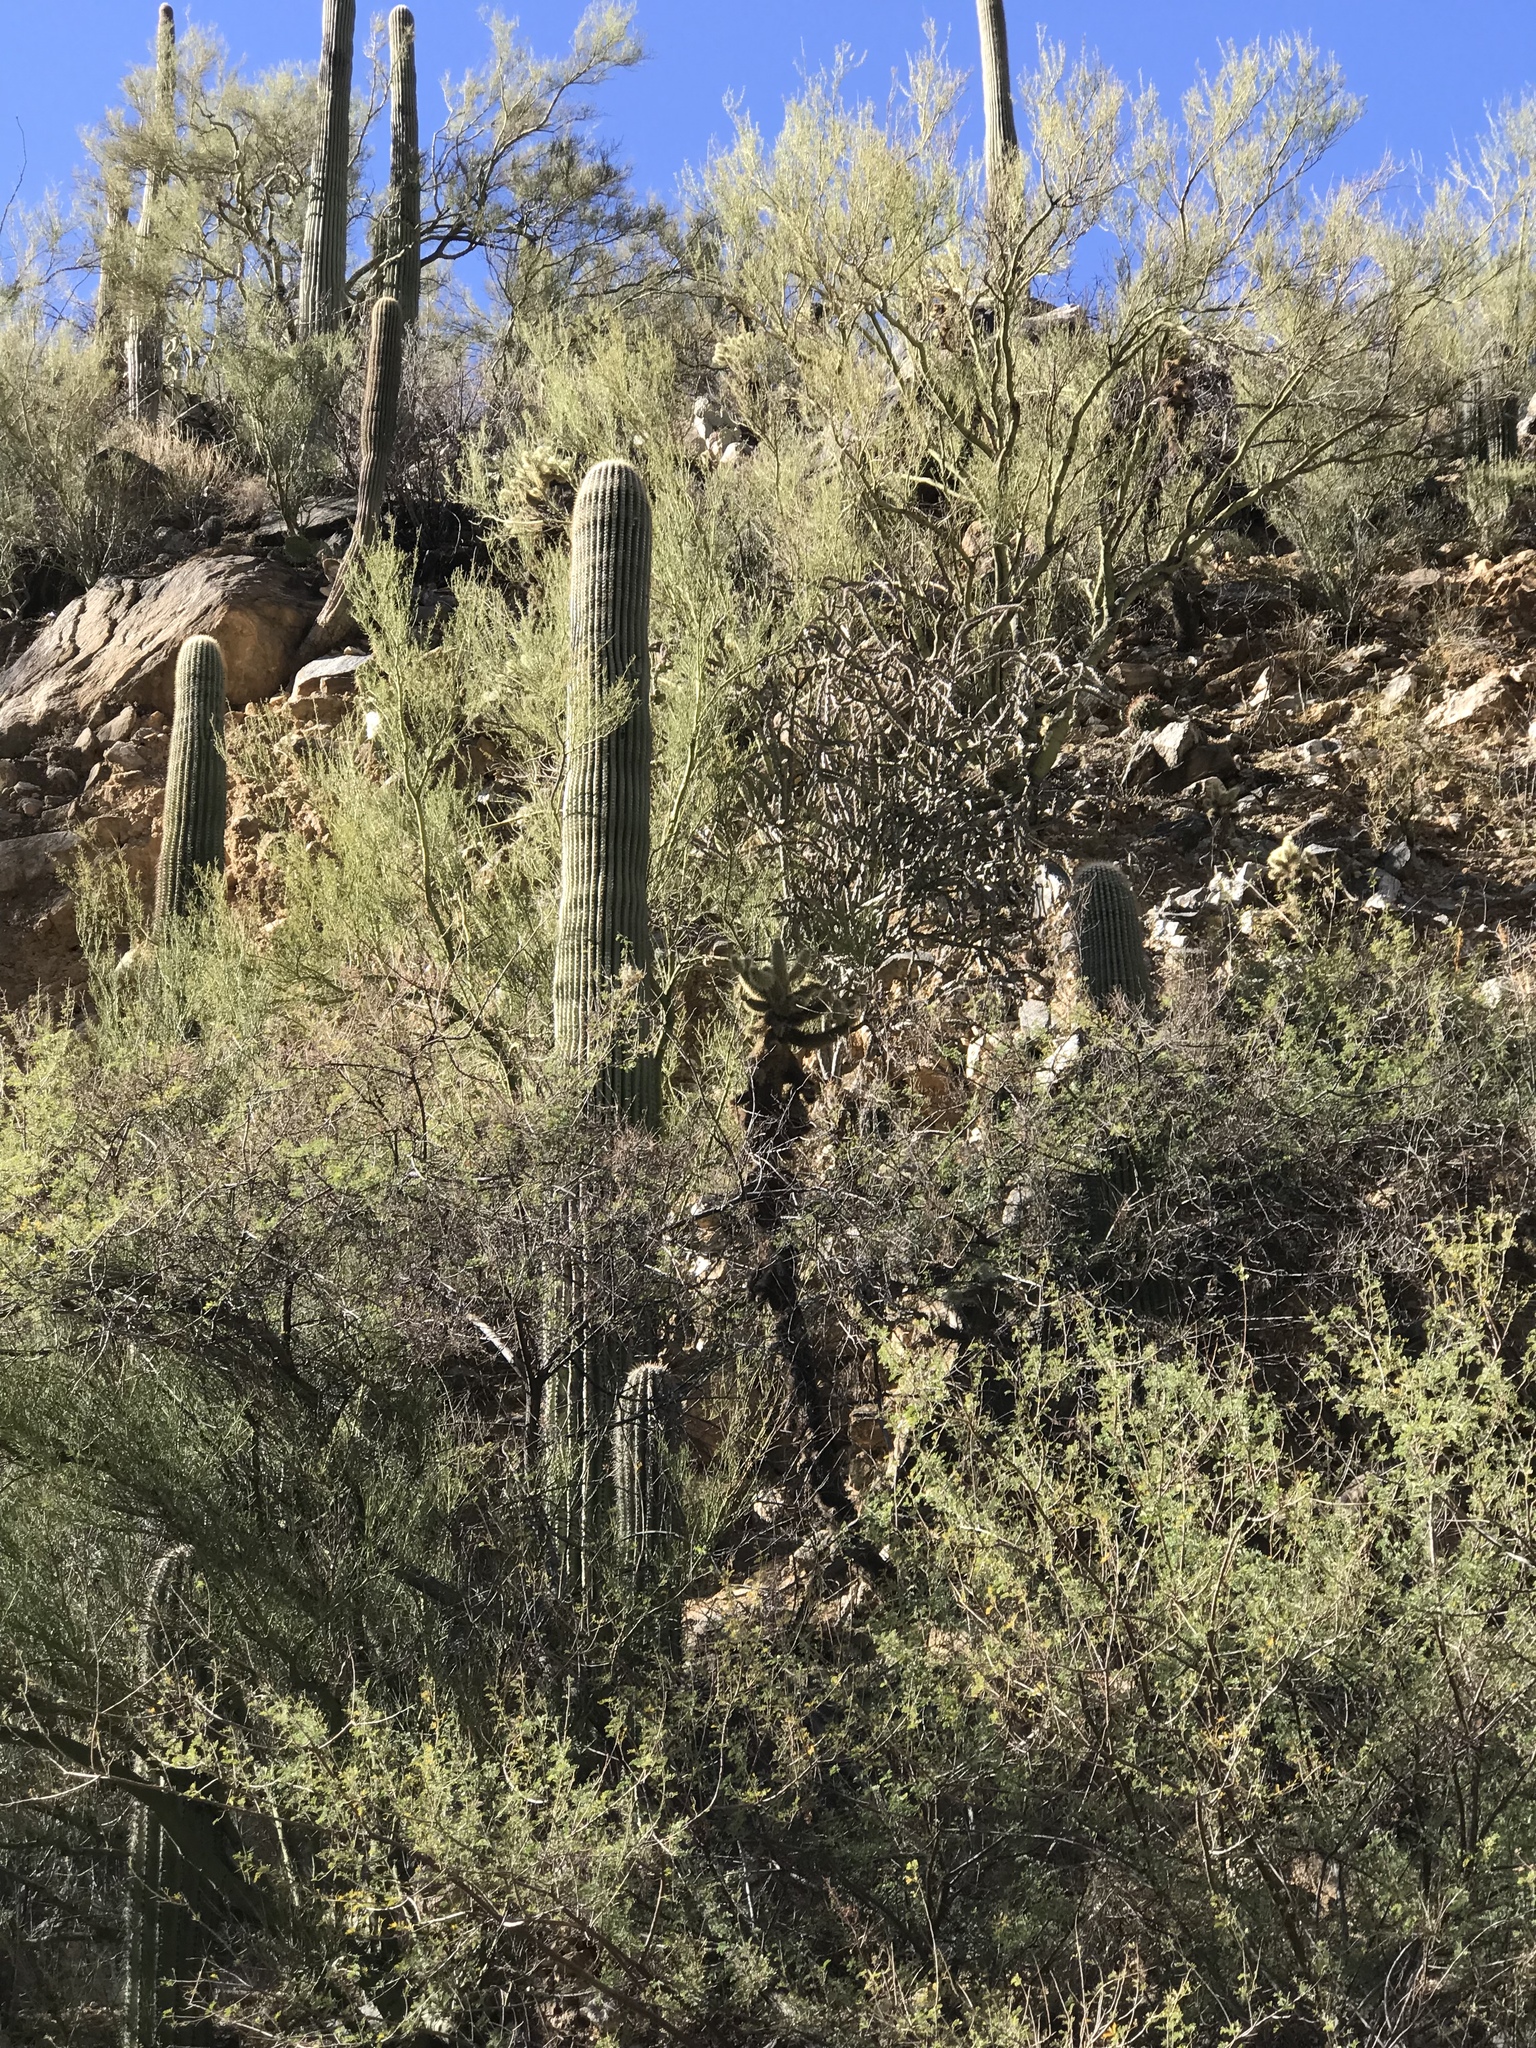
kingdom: Plantae
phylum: Tracheophyta
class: Magnoliopsida
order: Caryophyllales
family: Cactaceae
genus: Carnegiea
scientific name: Carnegiea gigantea
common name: Saguaro
